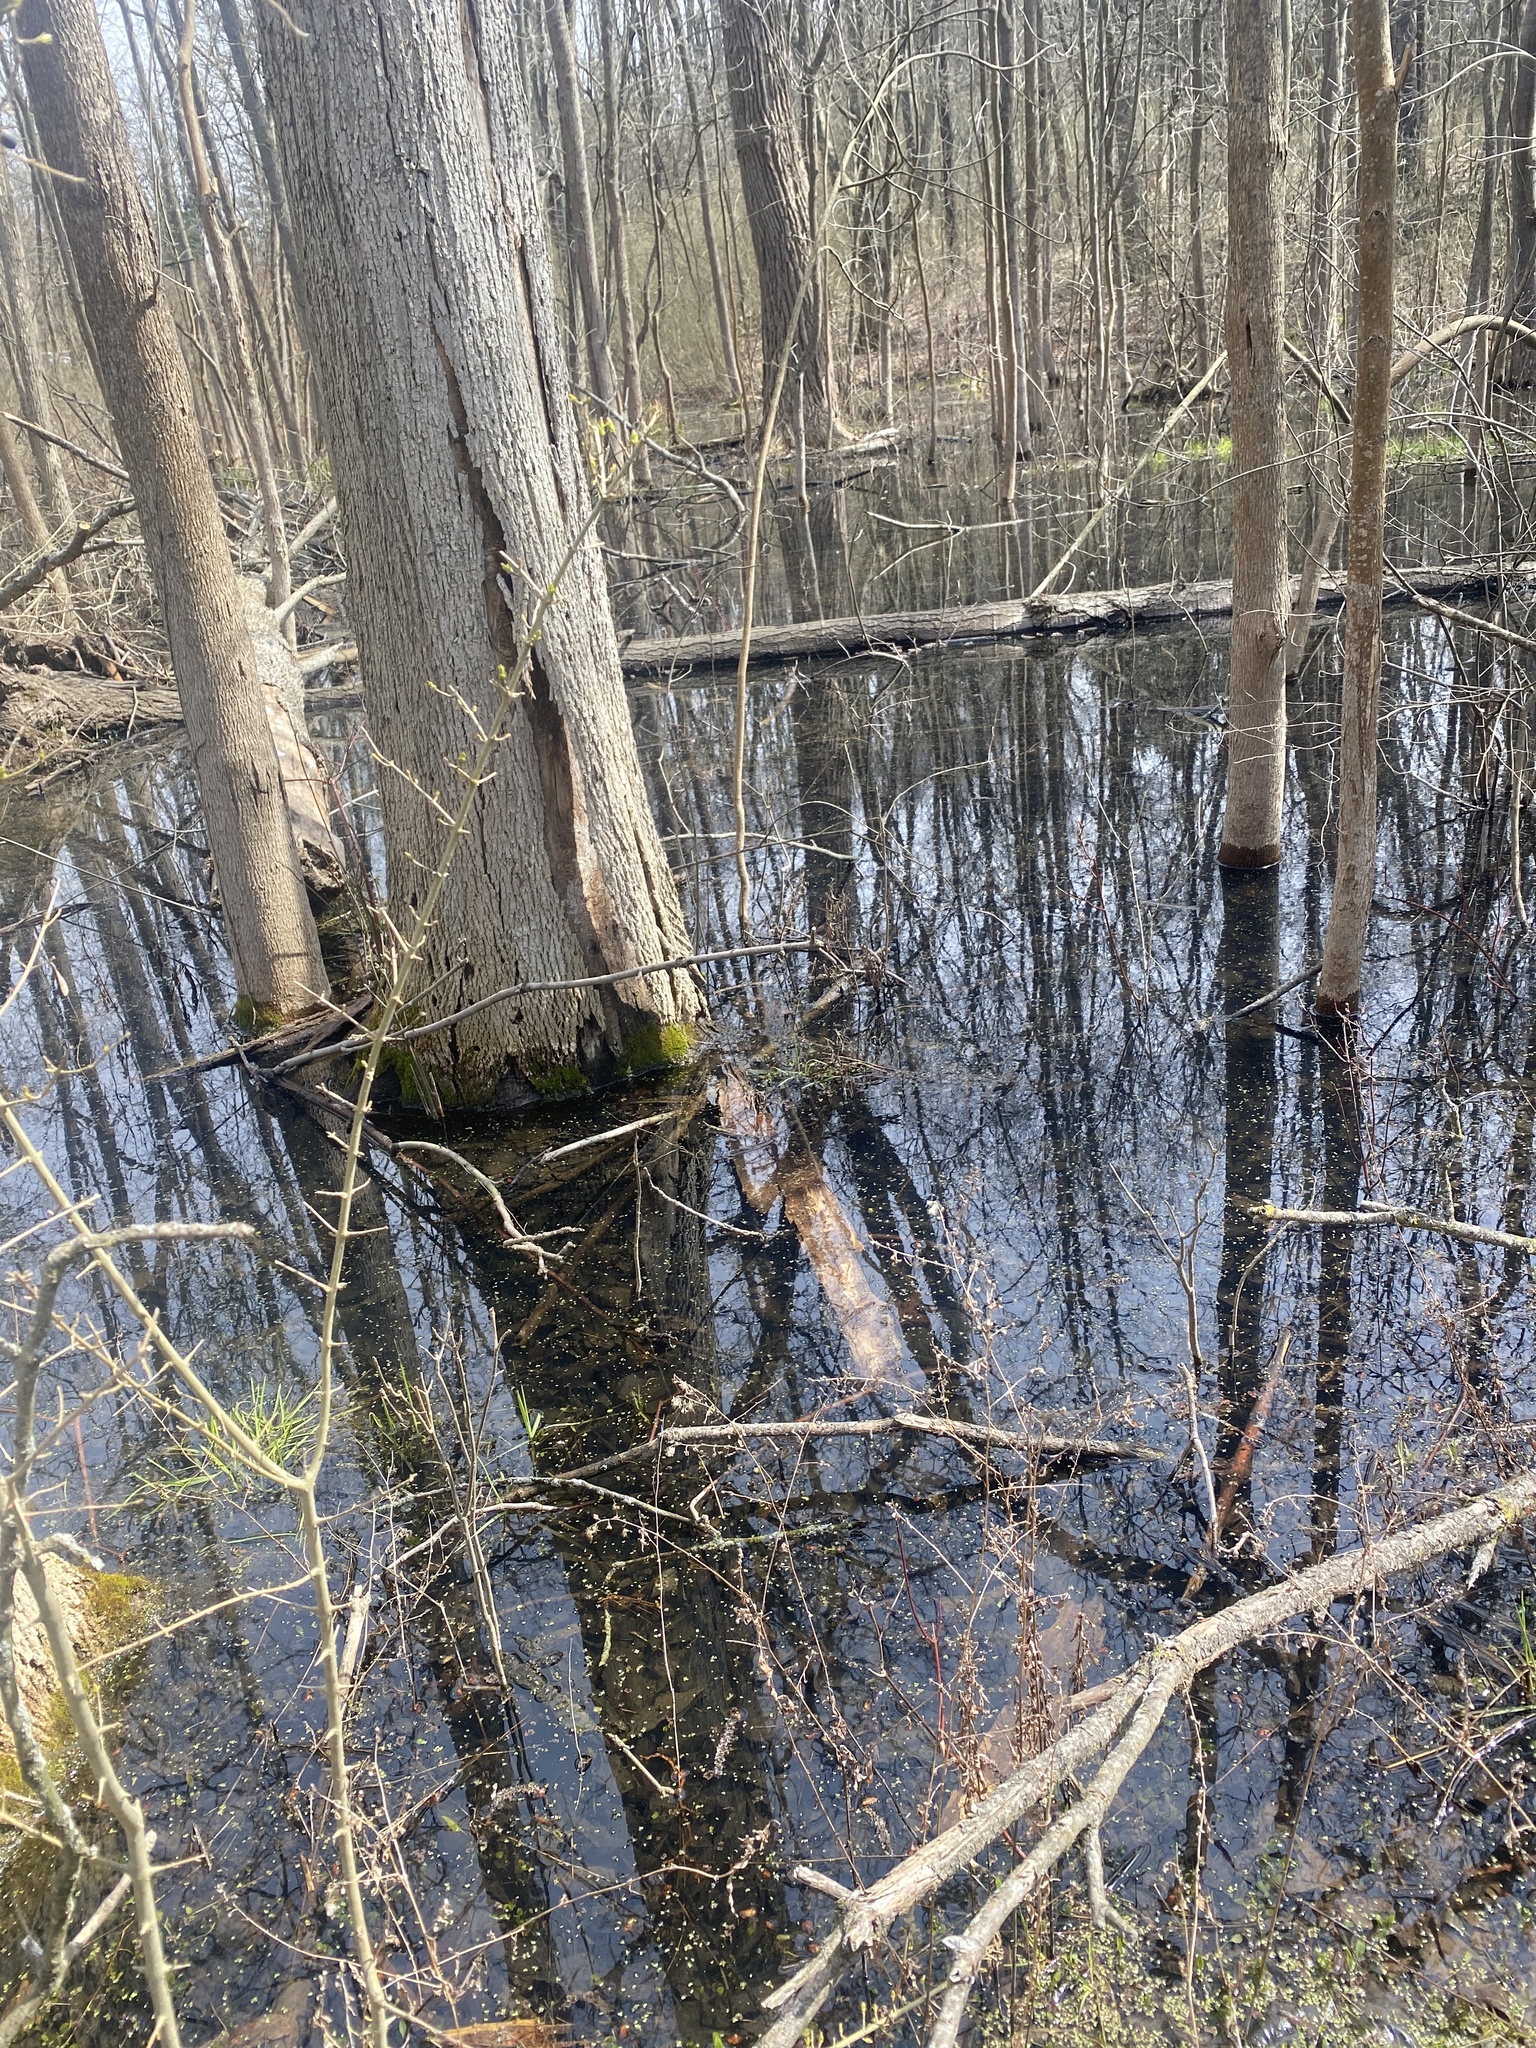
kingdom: Animalia
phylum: Chordata
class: Amphibia
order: Anura
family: Ranidae
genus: Lithobates
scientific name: Lithobates sylvaticus
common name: Wood frog
